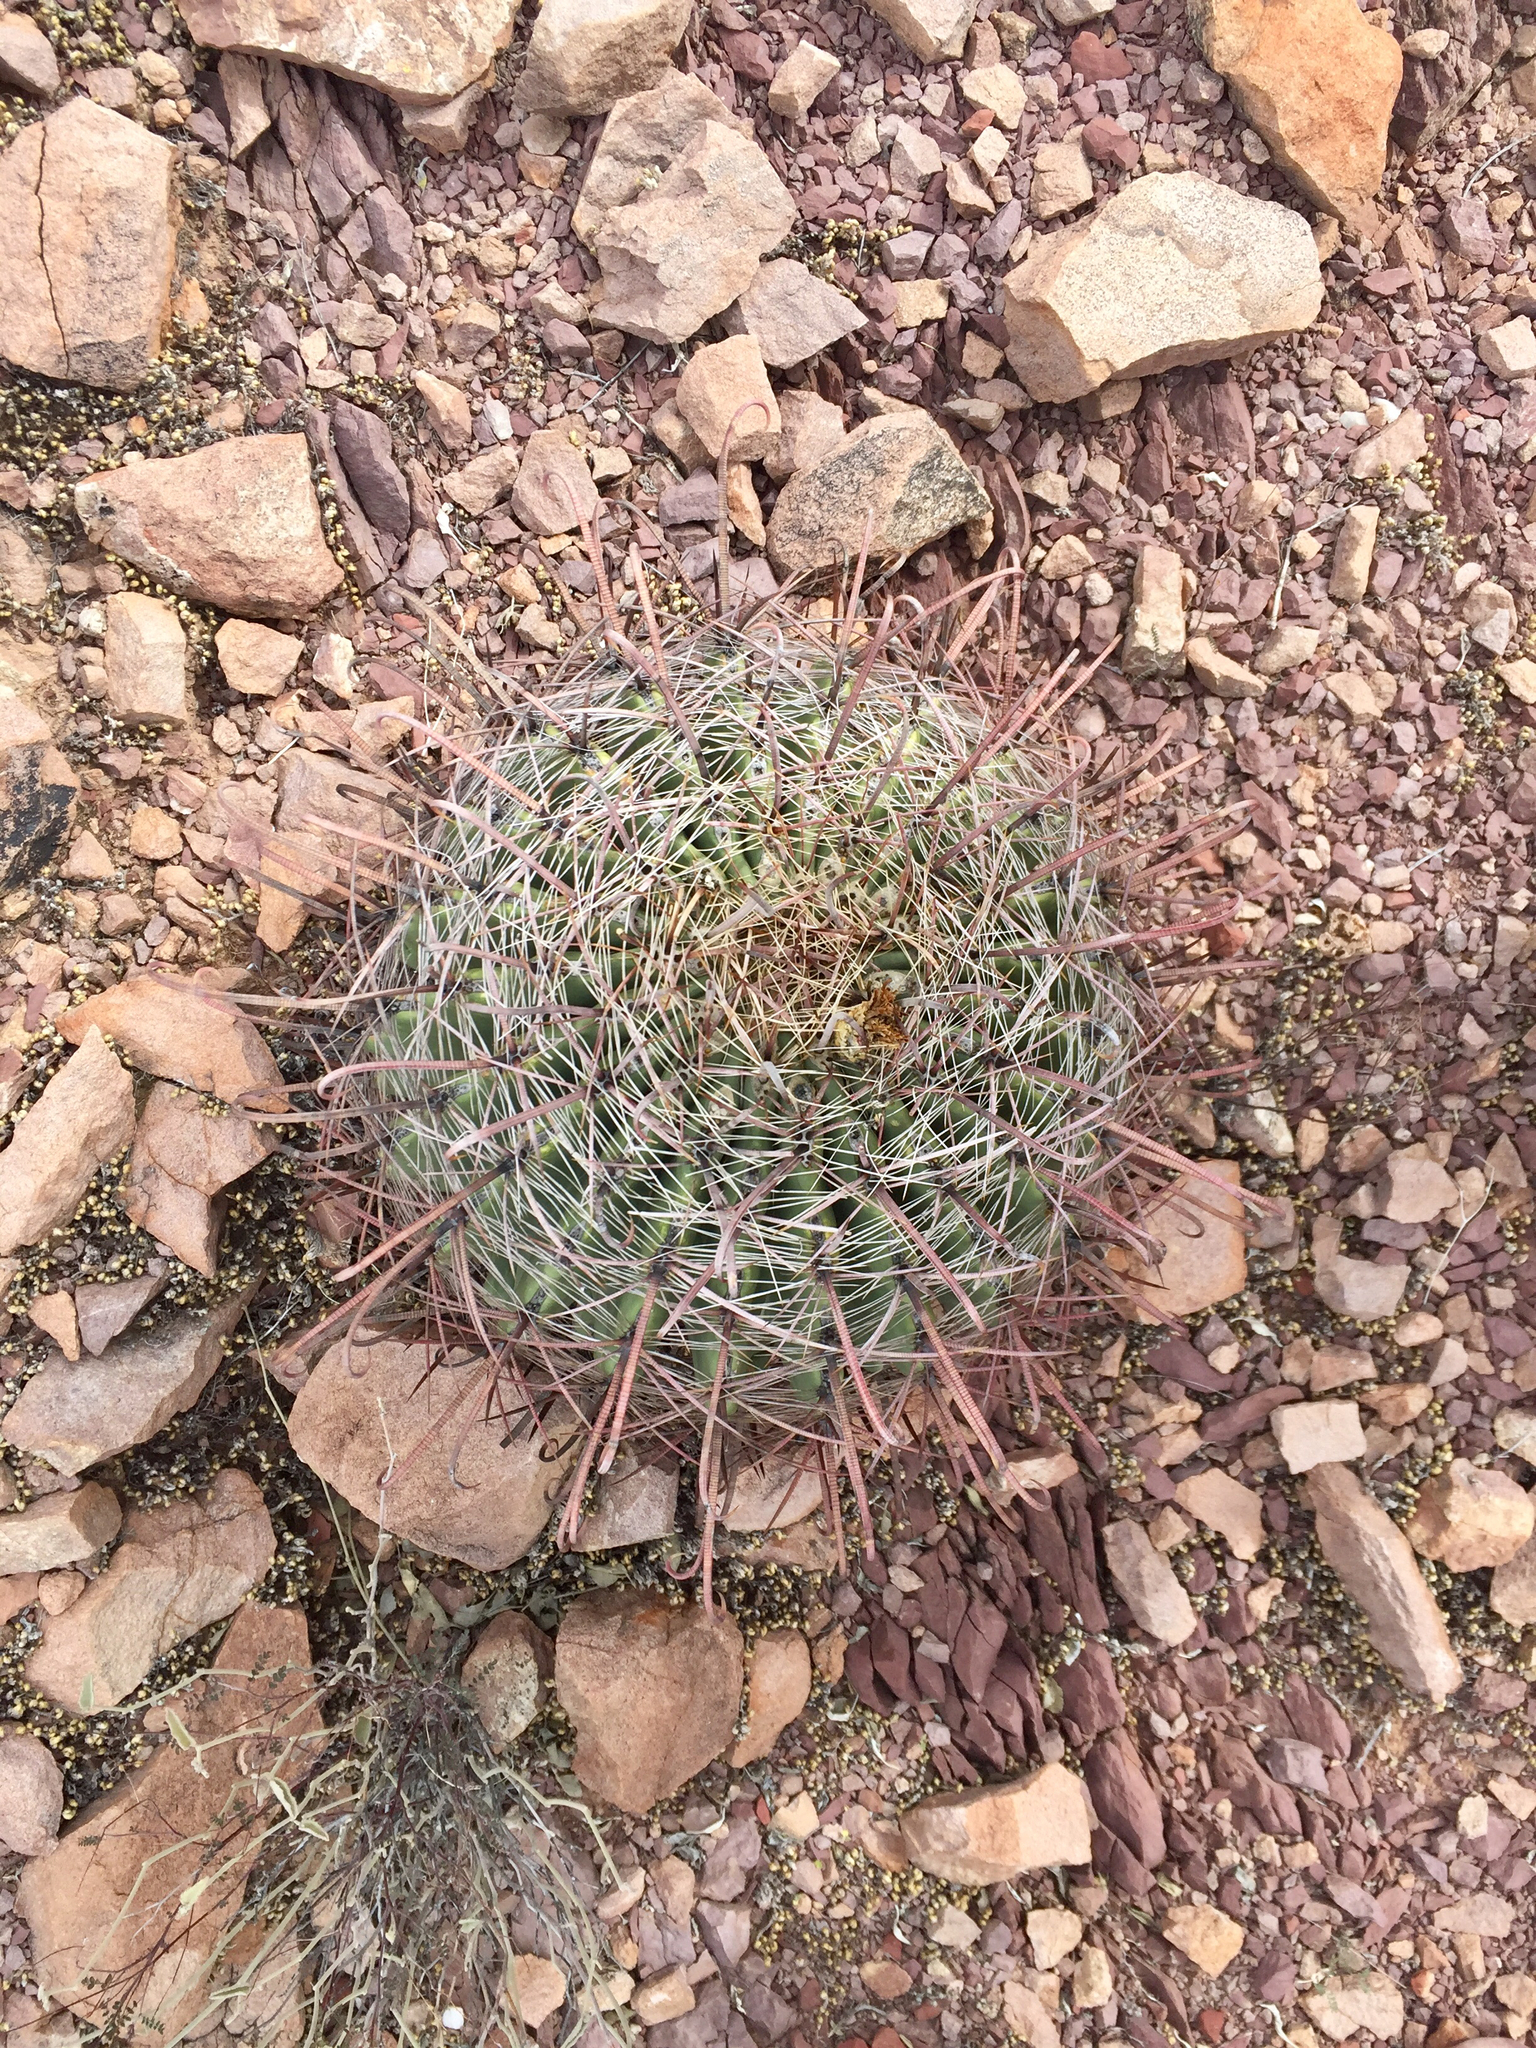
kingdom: Plantae
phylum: Tracheophyta
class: Magnoliopsida
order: Caryophyllales
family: Cactaceae
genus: Ferocactus
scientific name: Ferocactus wislizeni
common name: Candy barrel cactus
